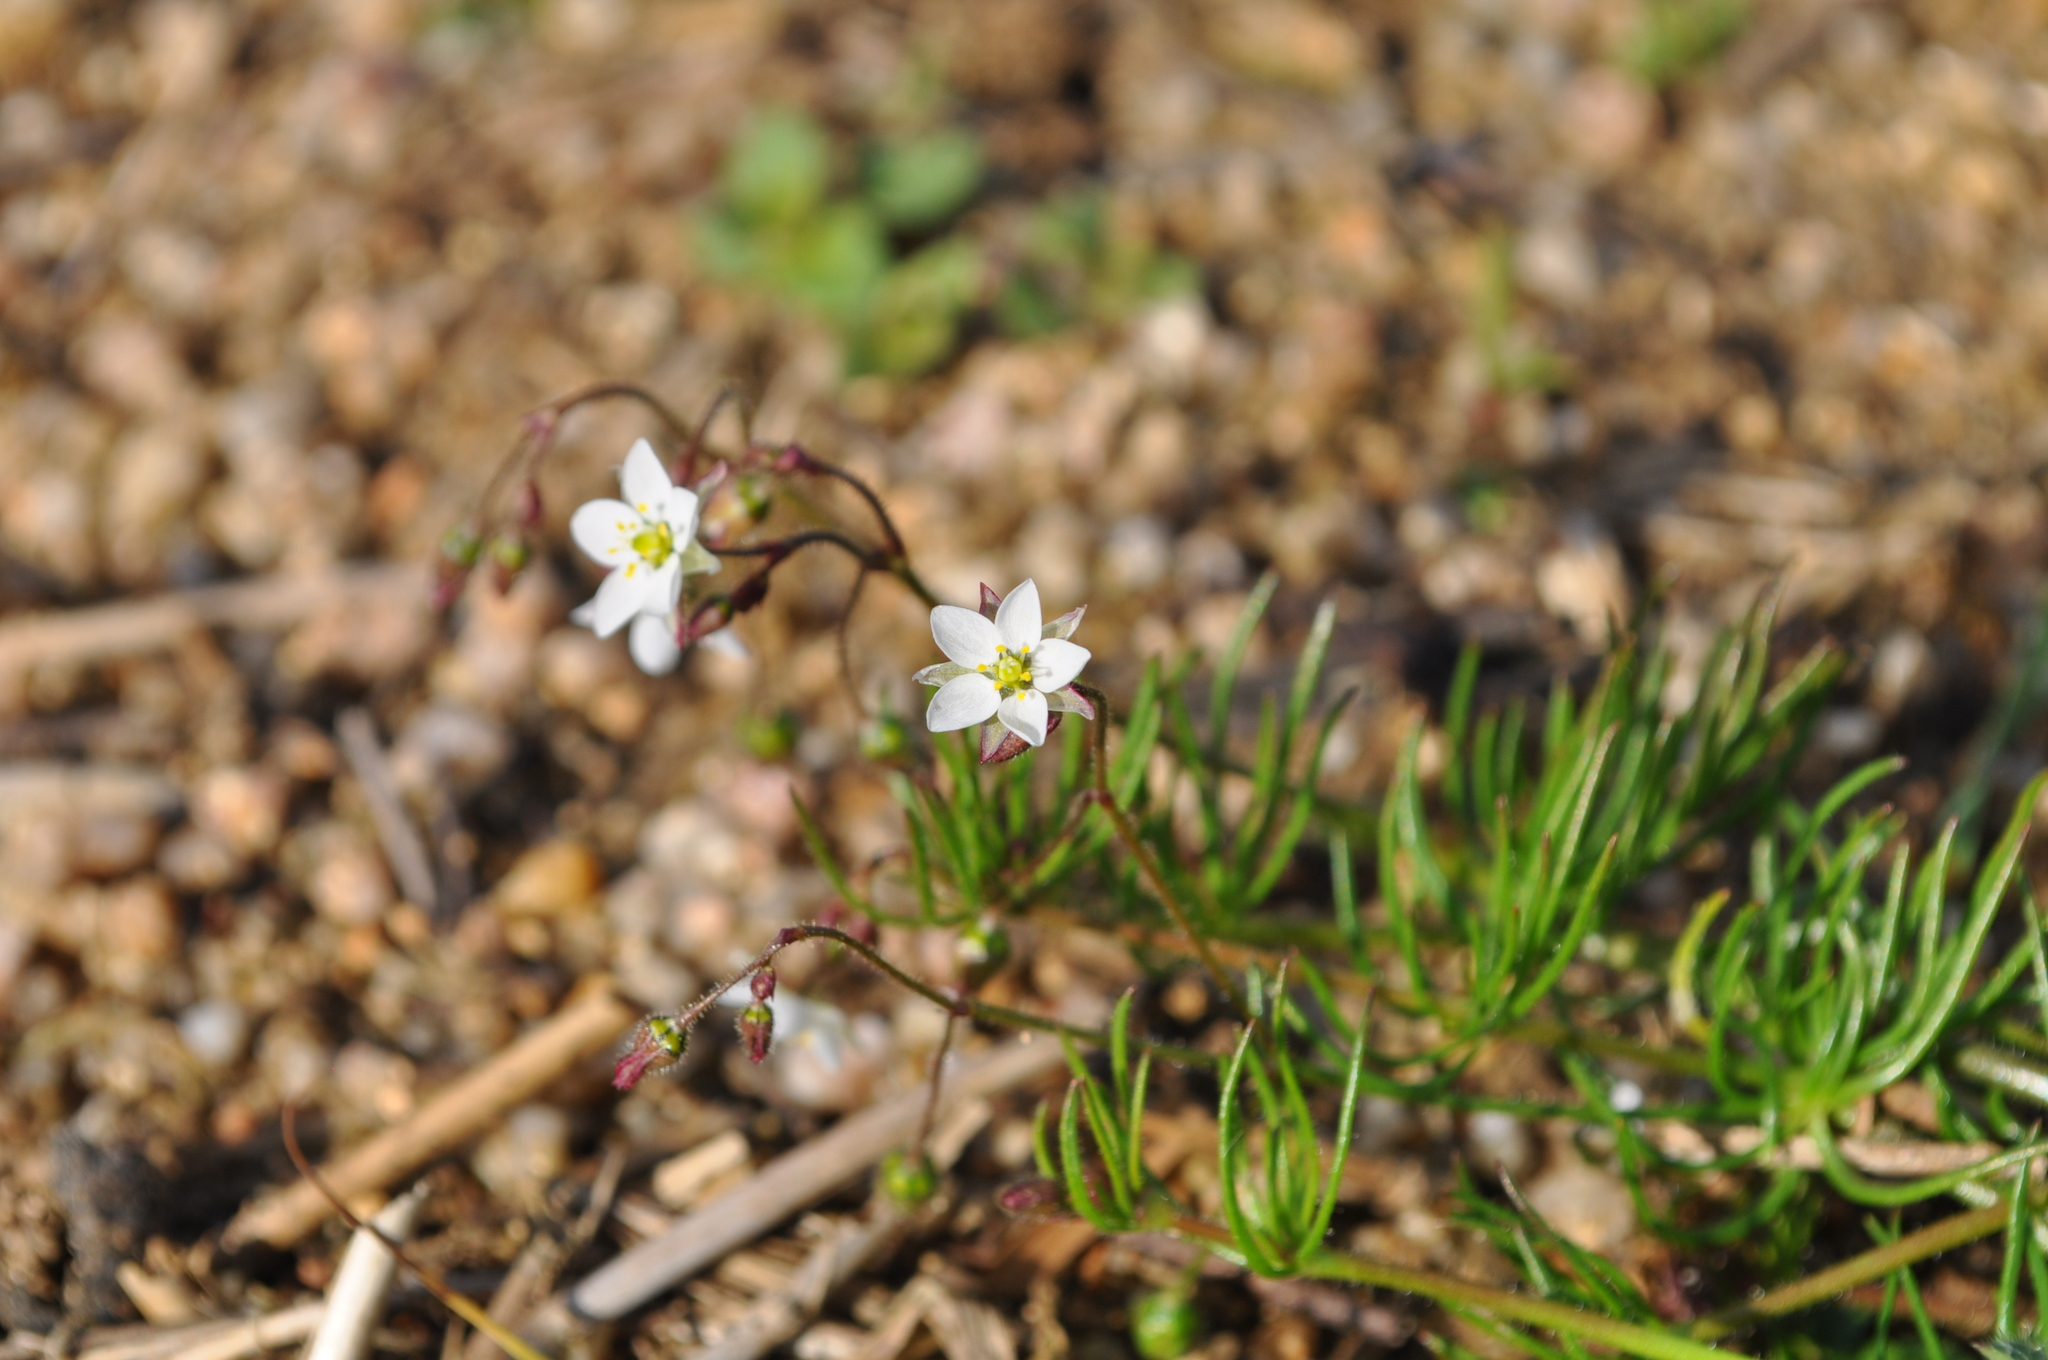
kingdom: Plantae
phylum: Tracheophyta
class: Magnoliopsida
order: Caryophyllales
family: Caryophyllaceae
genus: Spergula
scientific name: Spergula arvensis
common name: Corn spurrey
